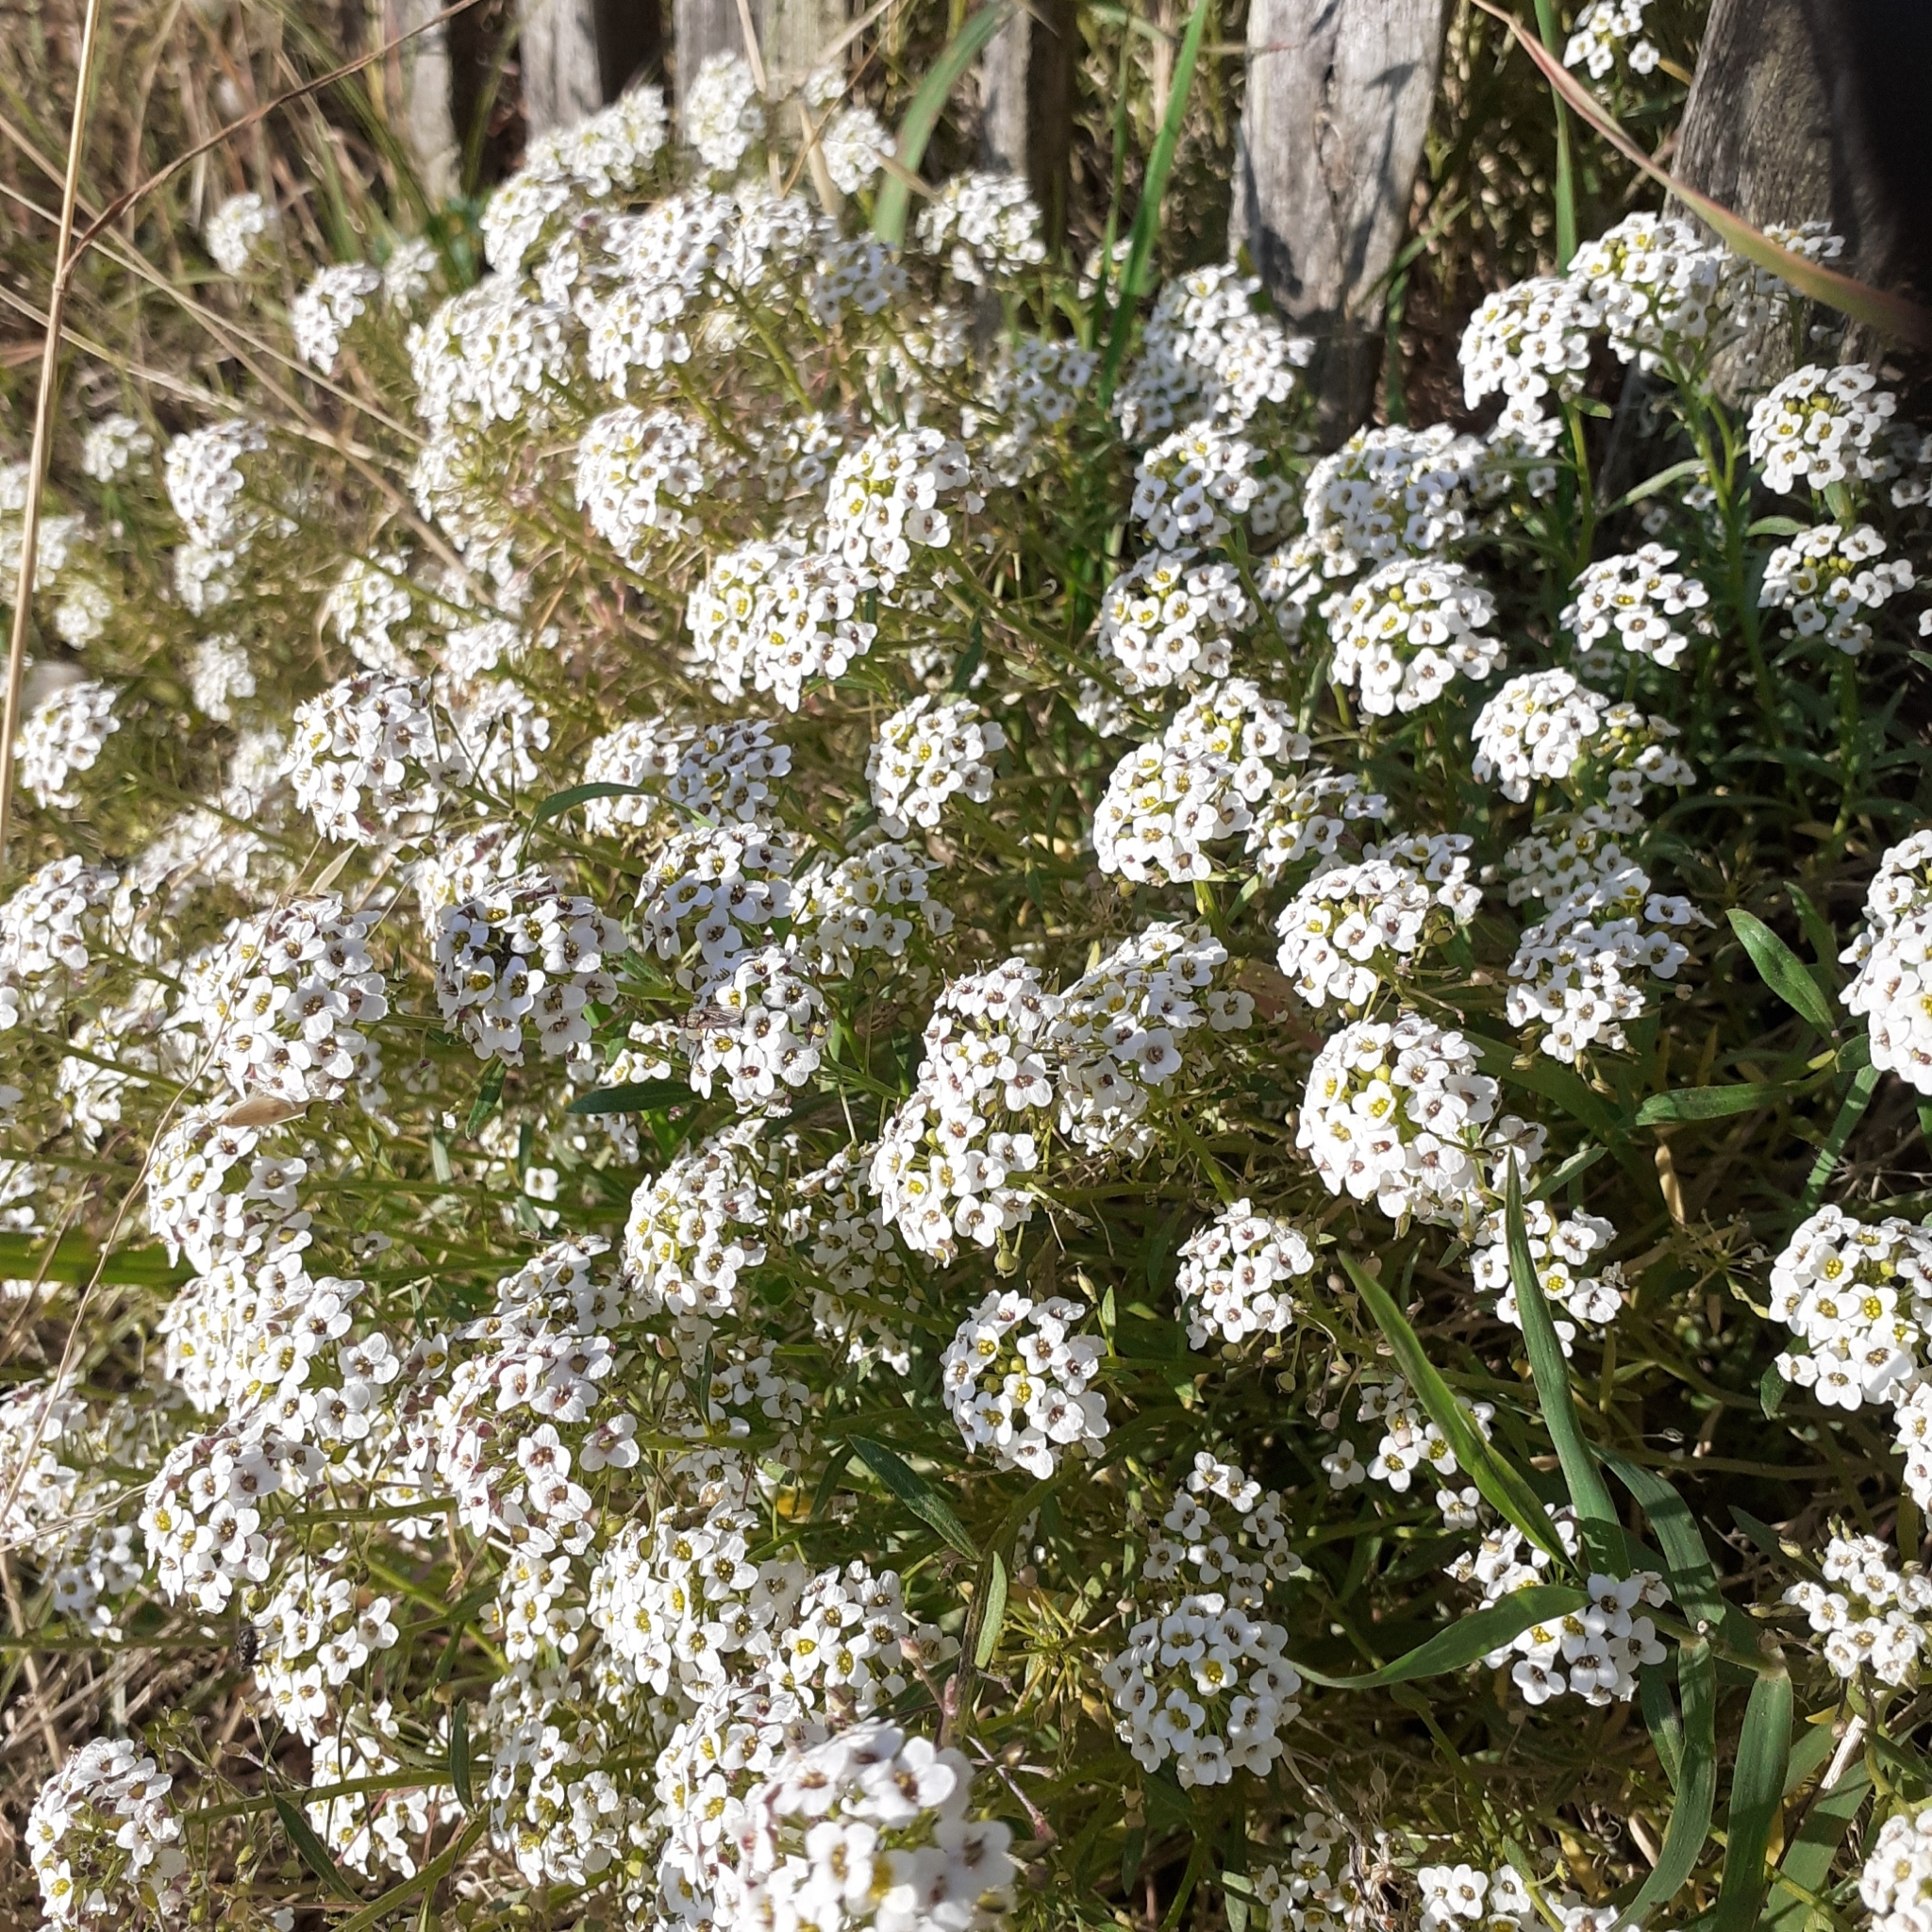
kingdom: Plantae
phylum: Tracheophyta
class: Magnoliopsida
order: Brassicales
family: Brassicaceae
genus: Lobularia
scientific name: Lobularia maritima
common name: Sweet alison
